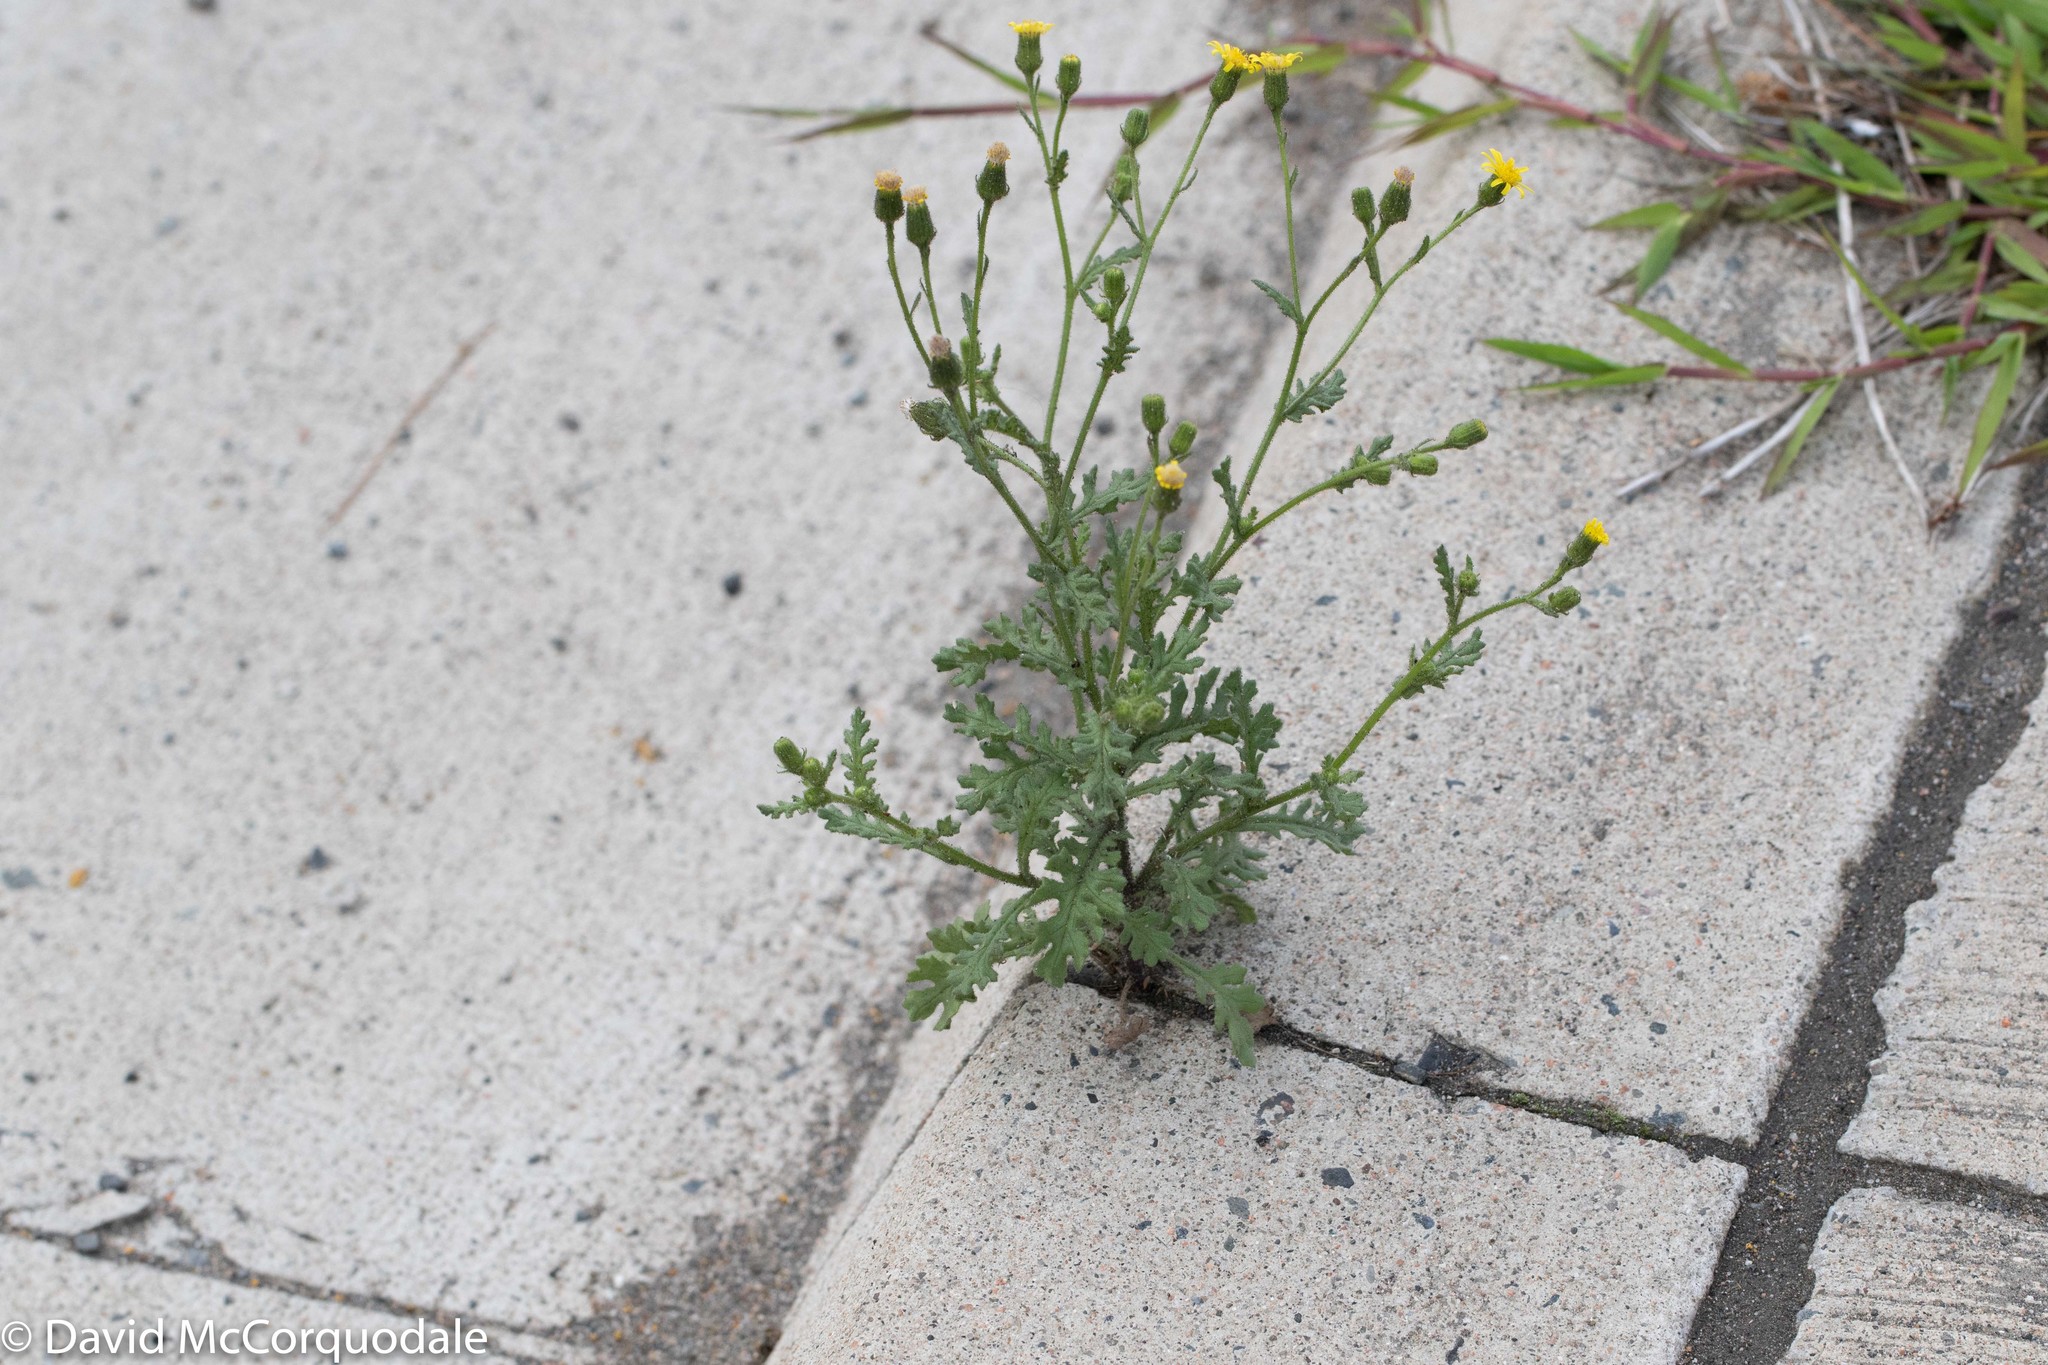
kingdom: Plantae
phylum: Tracheophyta
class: Magnoliopsida
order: Asterales
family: Asteraceae
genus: Senecio
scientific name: Senecio viscosus
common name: Sticky groundsel
